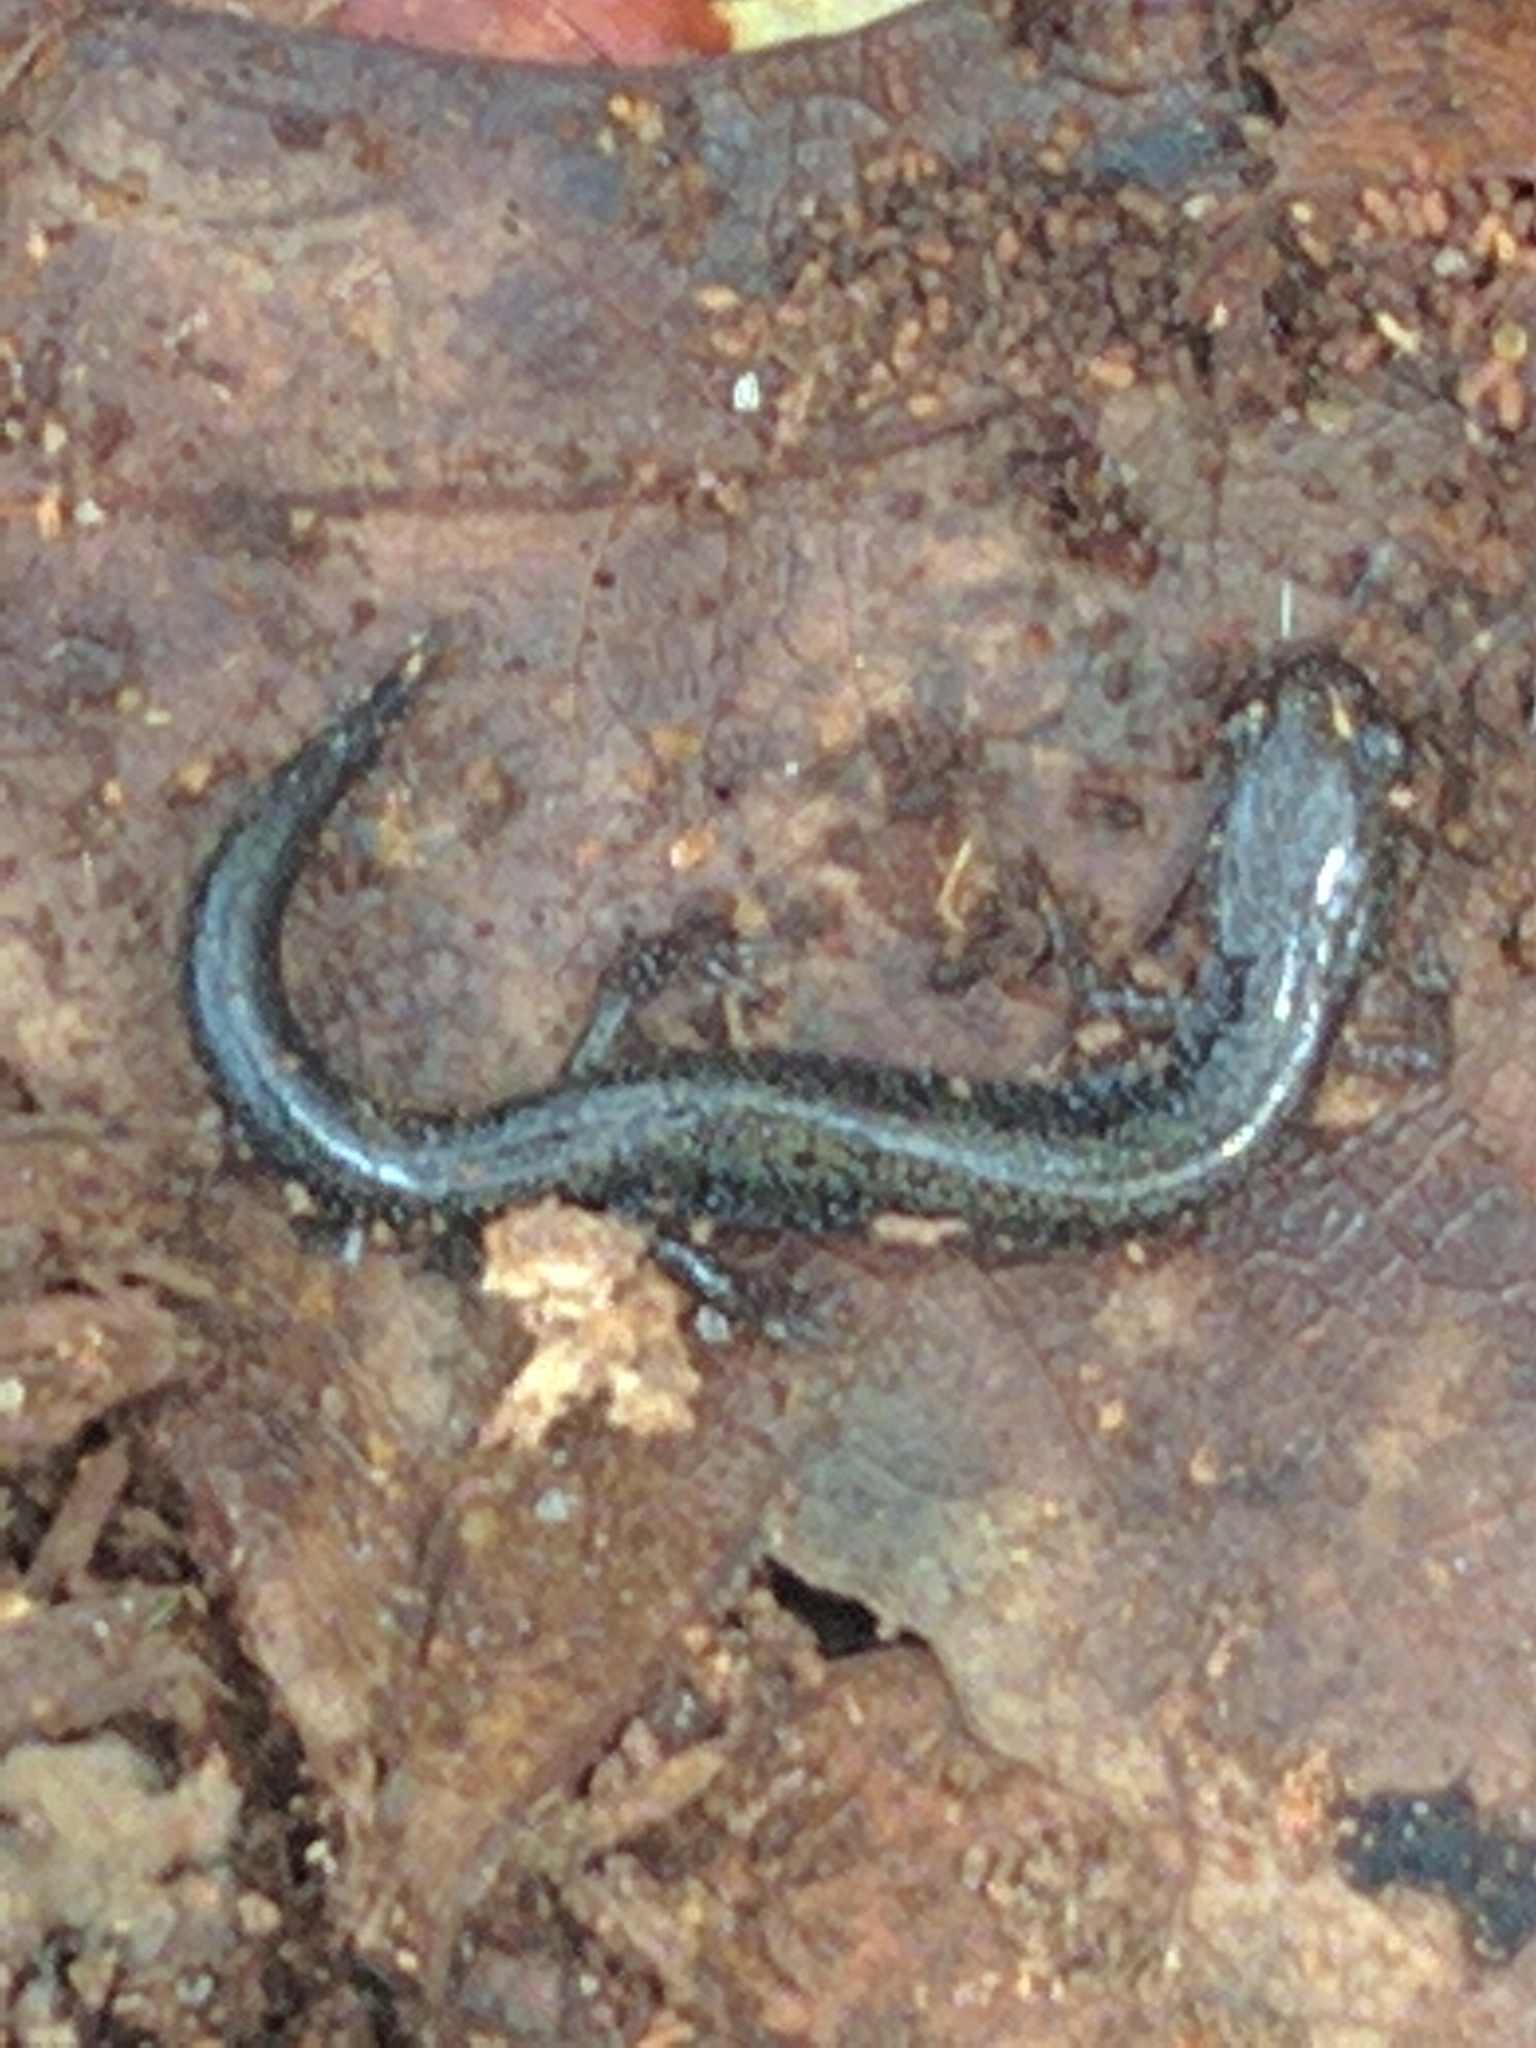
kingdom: Animalia
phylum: Chordata
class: Amphibia
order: Caudata
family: Plethodontidae
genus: Plethodon
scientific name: Plethodon cinereus
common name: Redback salamander
